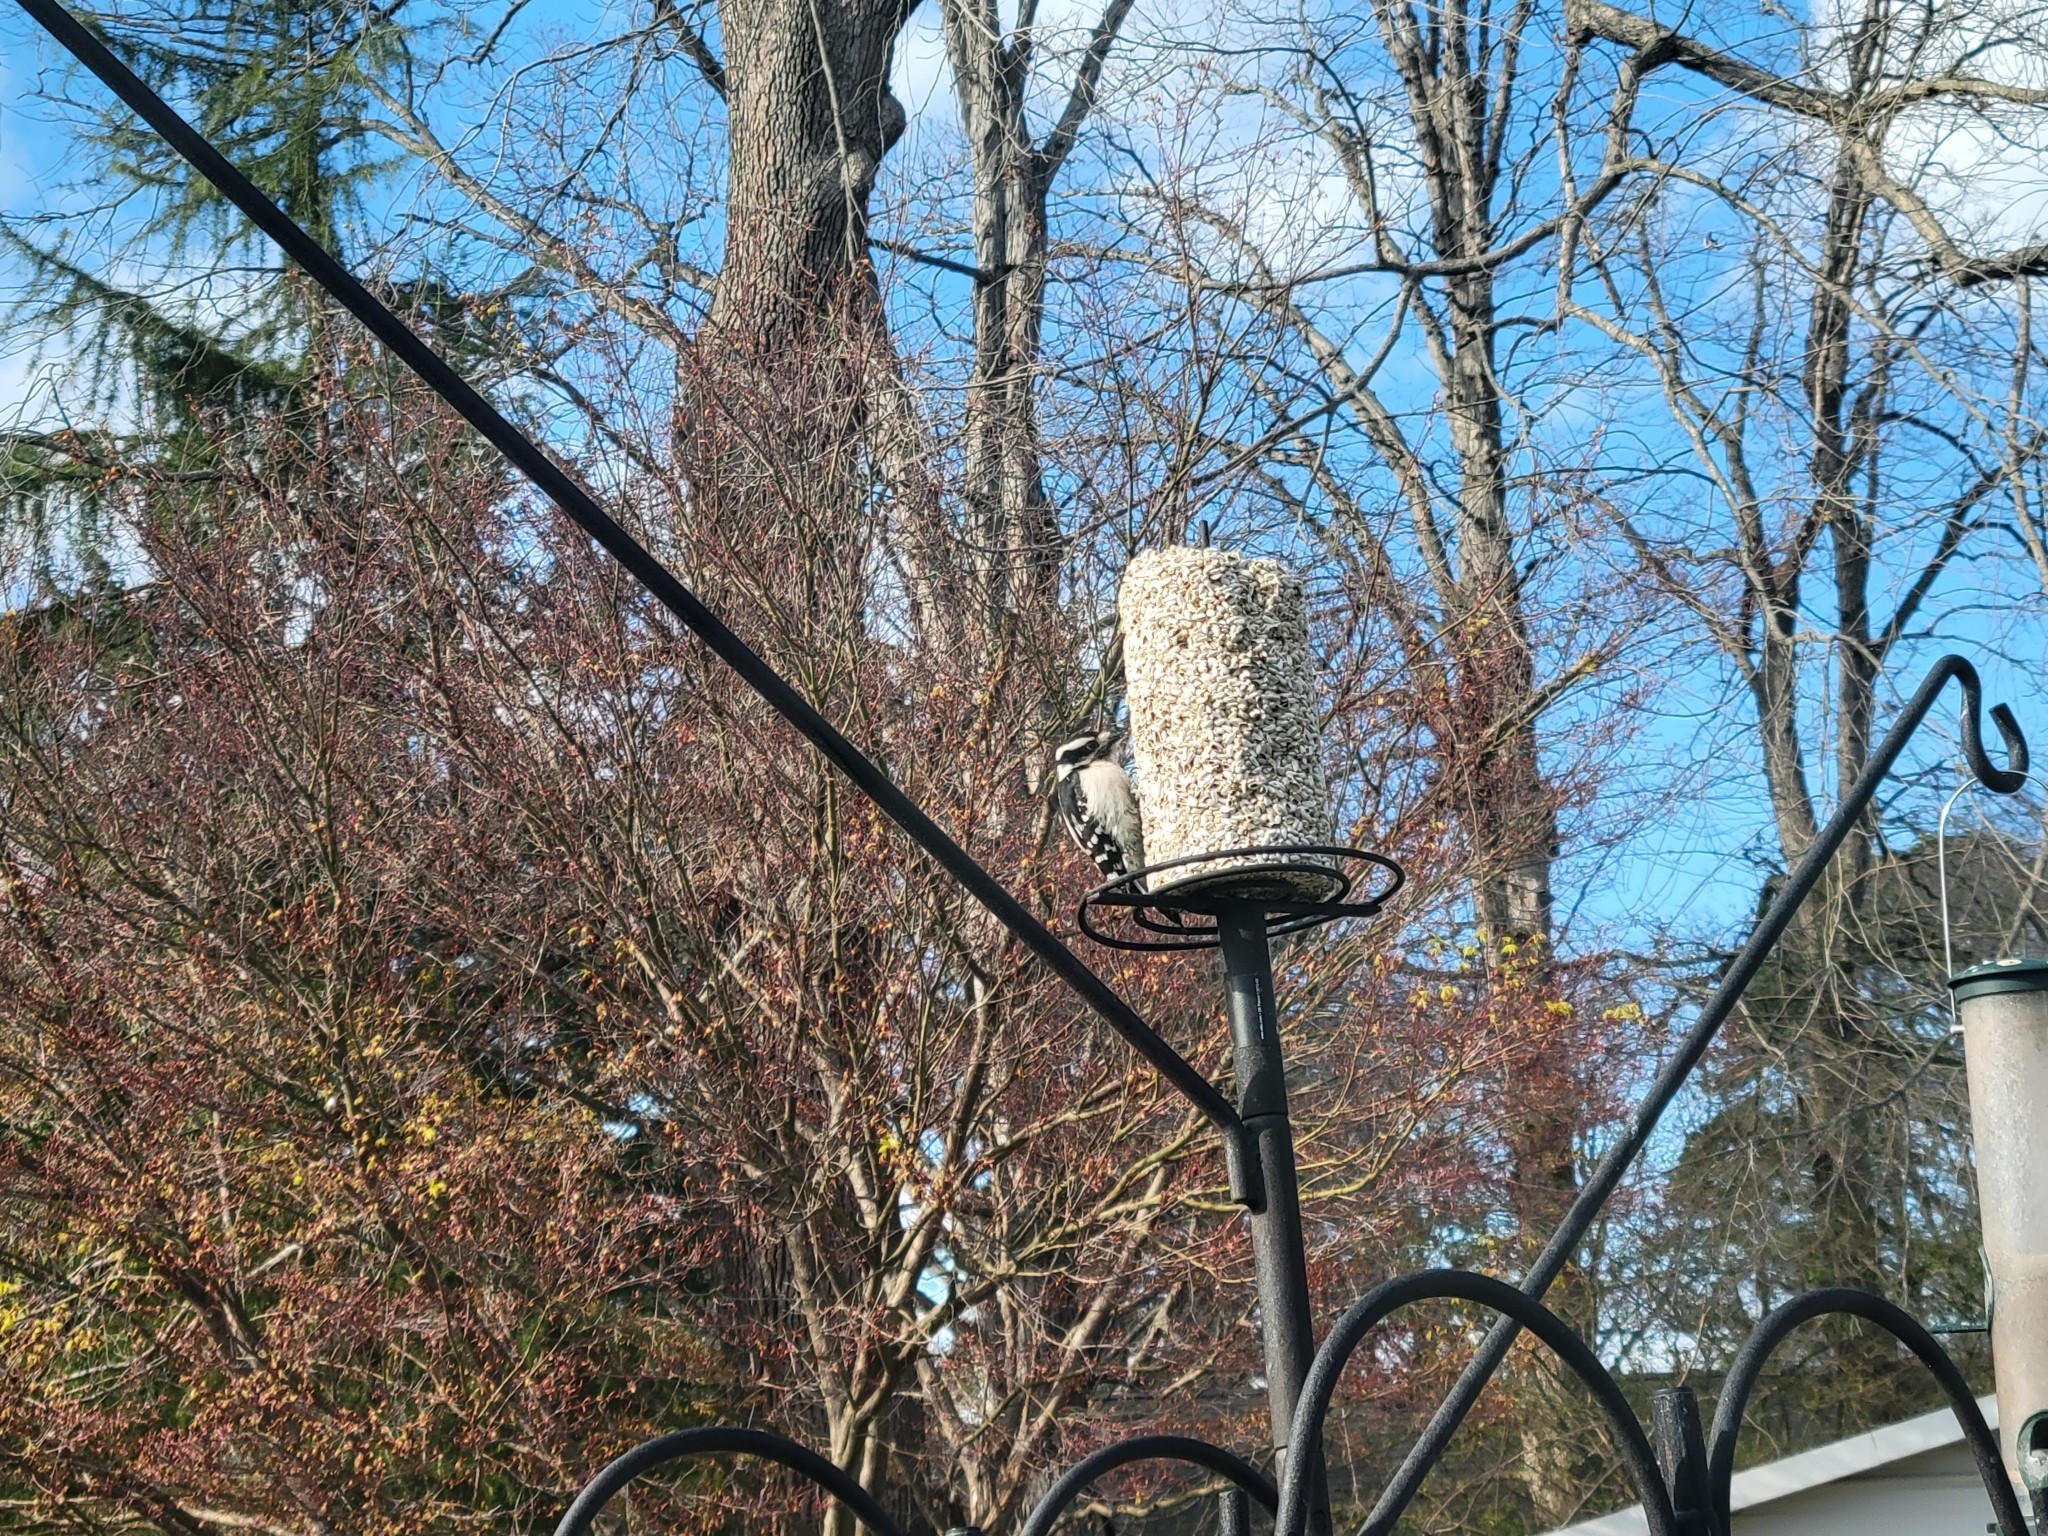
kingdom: Animalia
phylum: Chordata
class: Aves
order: Piciformes
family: Picidae
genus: Dryobates
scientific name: Dryobates pubescens
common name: Downy woodpecker
